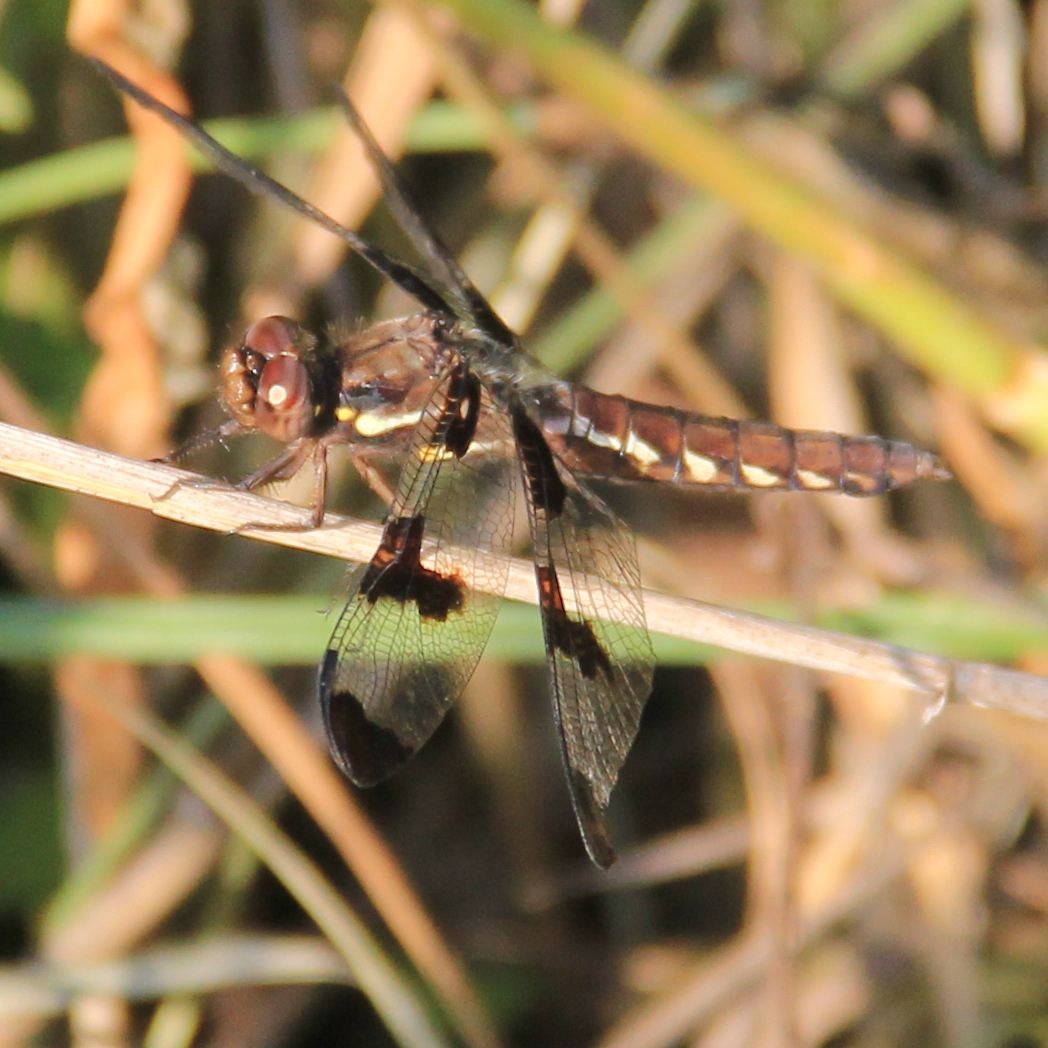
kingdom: Animalia
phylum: Arthropoda
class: Insecta
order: Odonata
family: Libellulidae
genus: Plathemis
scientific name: Plathemis lydia
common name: Common whitetail
